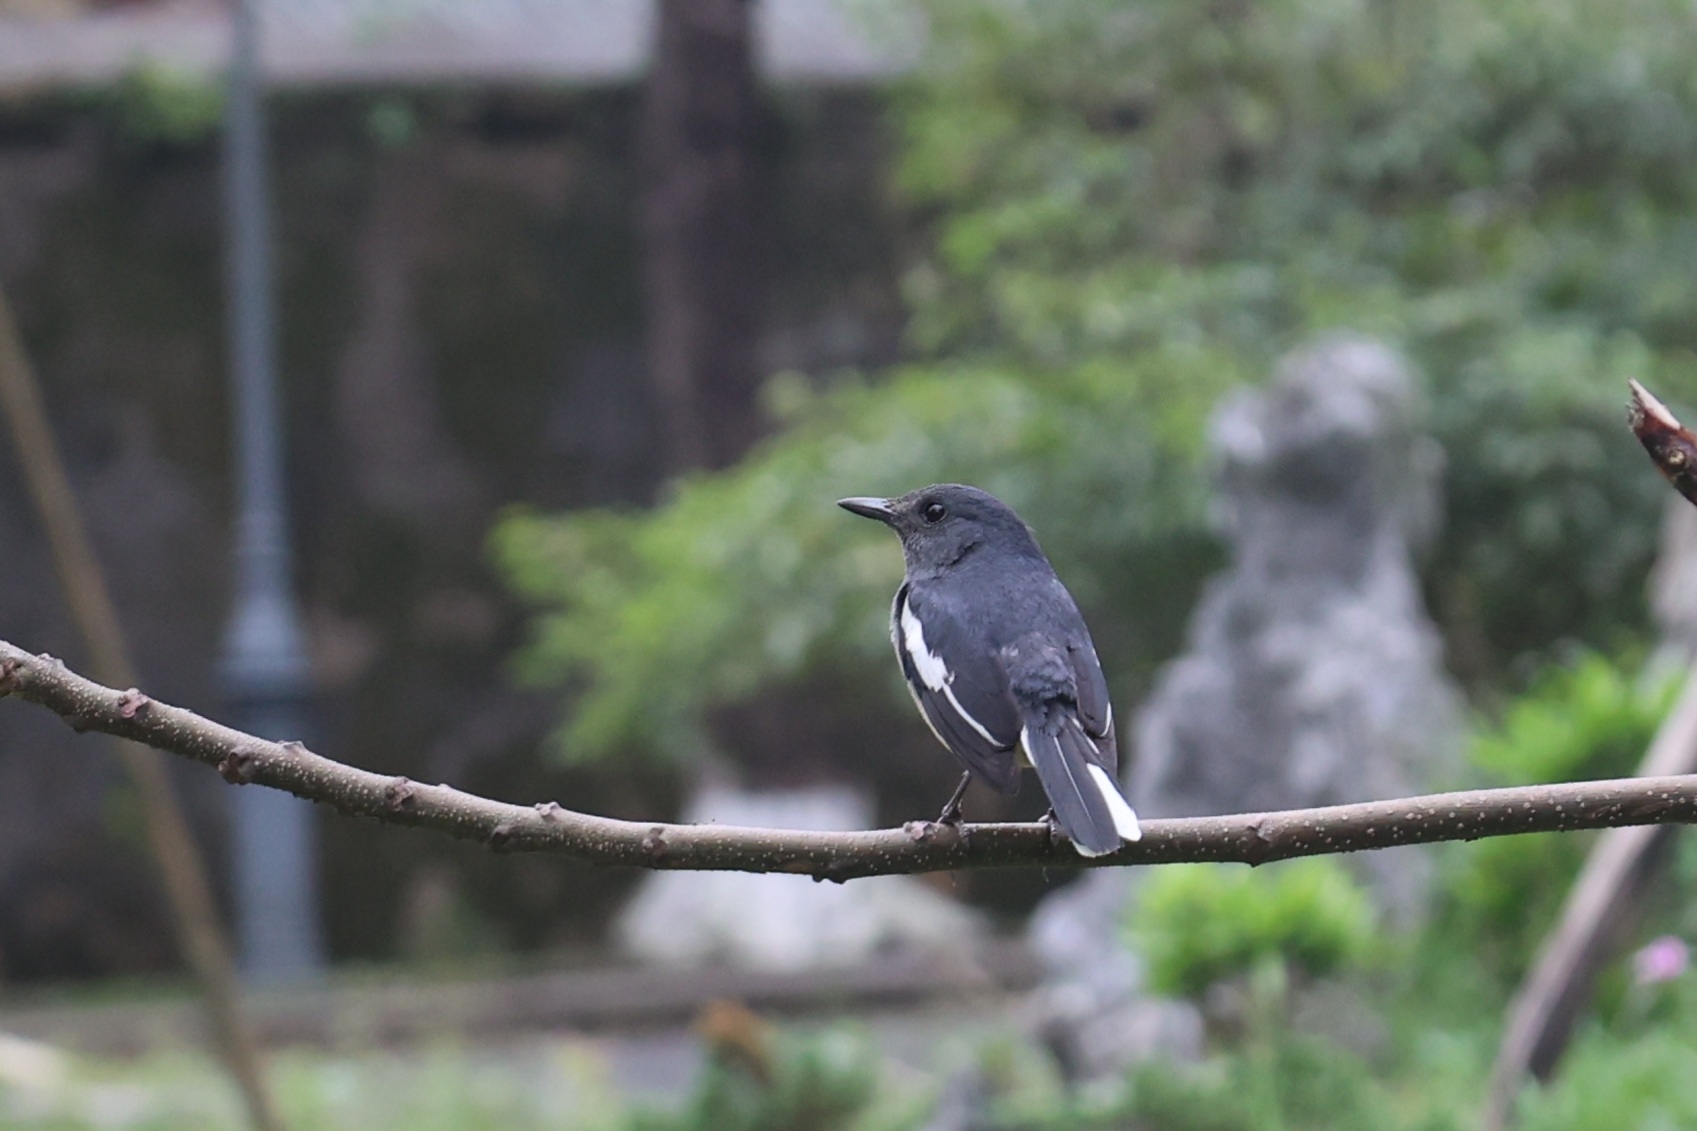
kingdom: Animalia
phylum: Chordata
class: Aves
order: Passeriformes
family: Muscicapidae
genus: Copsychus
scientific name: Copsychus saularis
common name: Oriental magpie-robin
